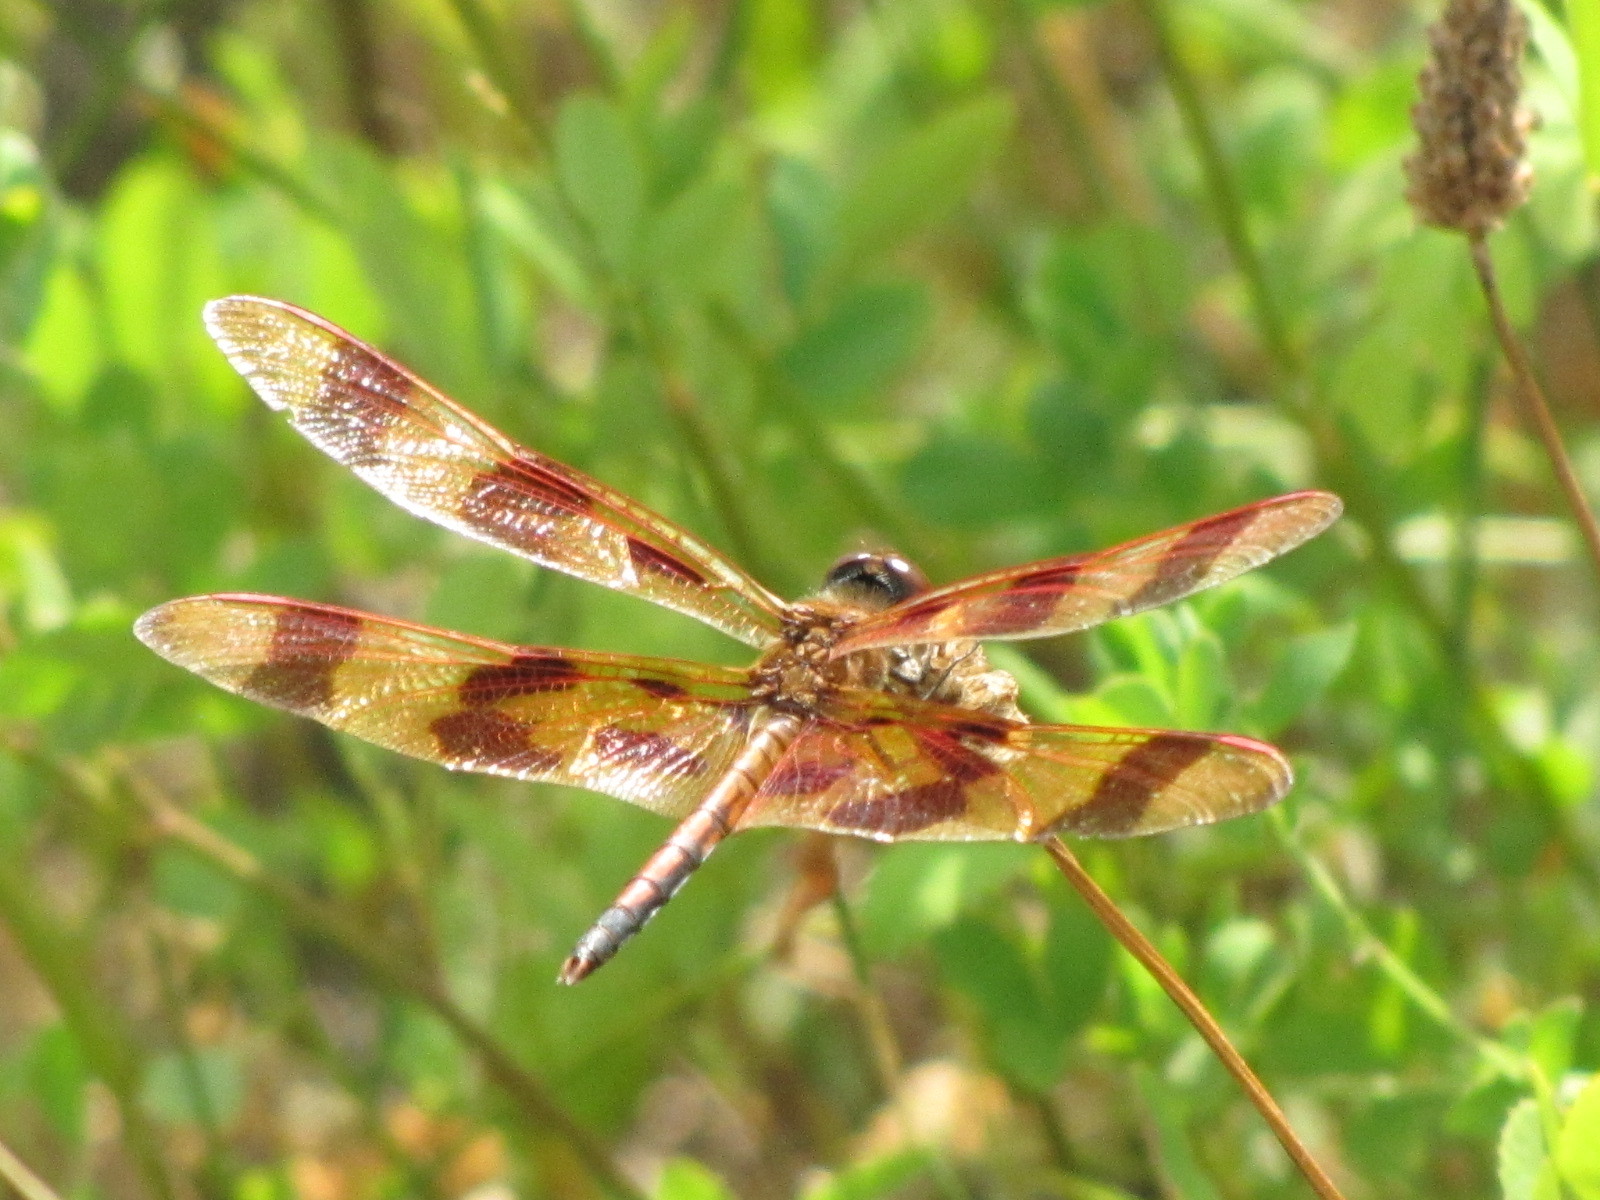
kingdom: Animalia
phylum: Arthropoda
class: Insecta
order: Odonata
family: Libellulidae
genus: Celithemis
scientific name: Celithemis eponina
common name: Halloween pennant
